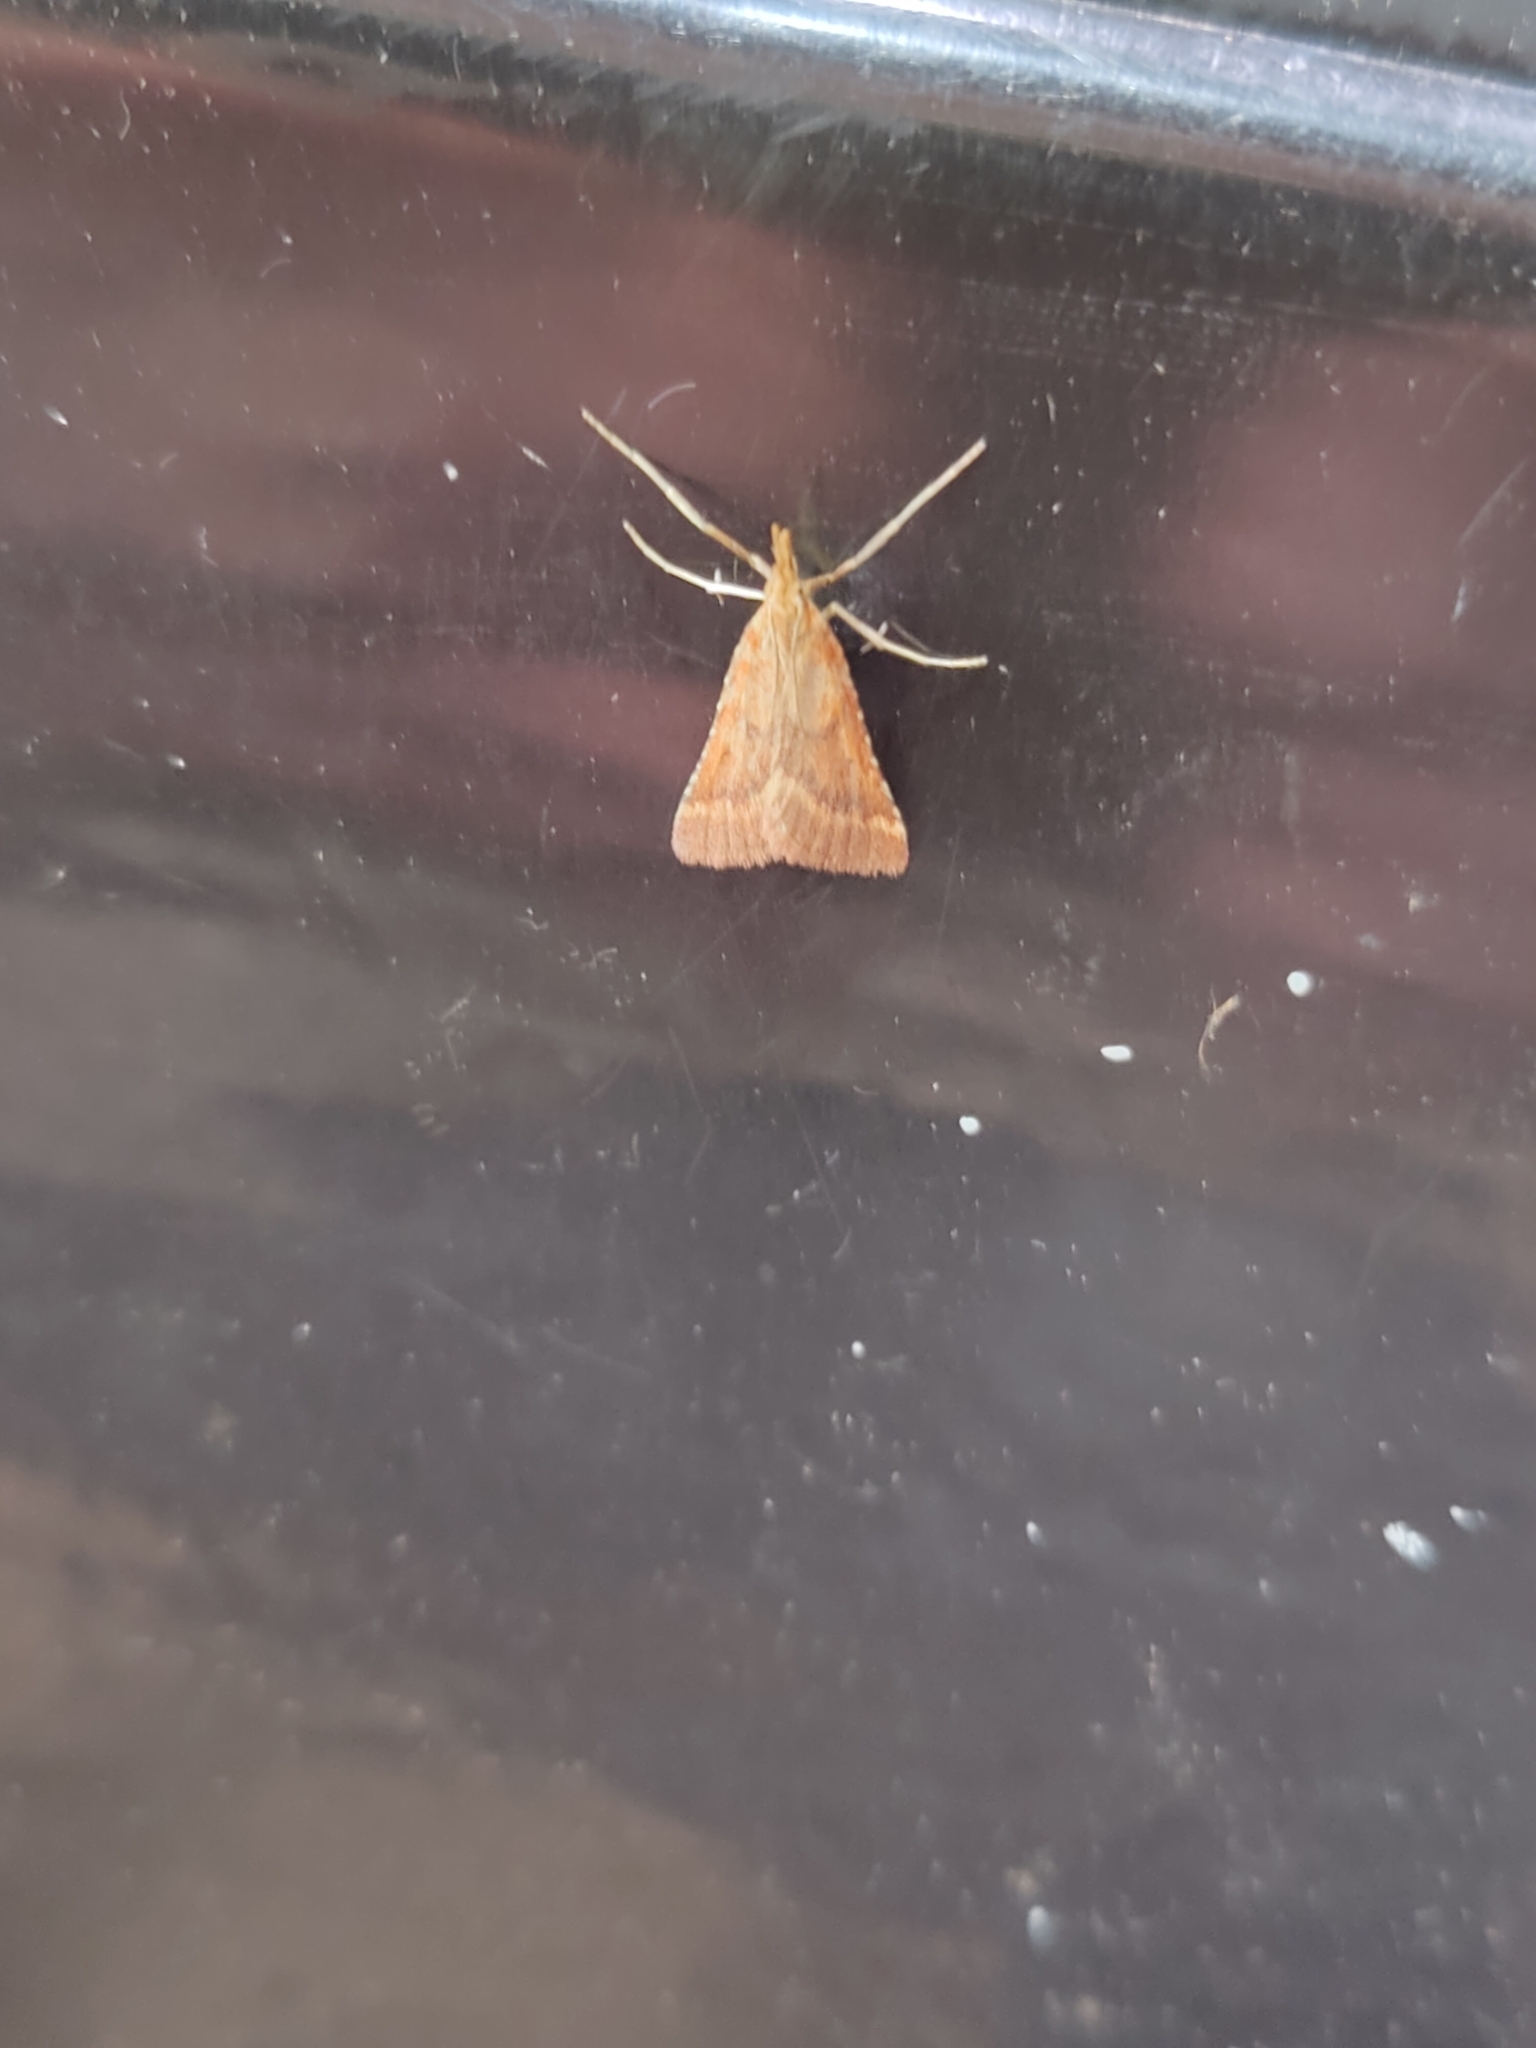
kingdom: Animalia
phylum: Arthropoda
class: Insecta
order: Lepidoptera
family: Pyralidae
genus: Synaphe
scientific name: Synaphe punctalis
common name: Long-legged tabby
